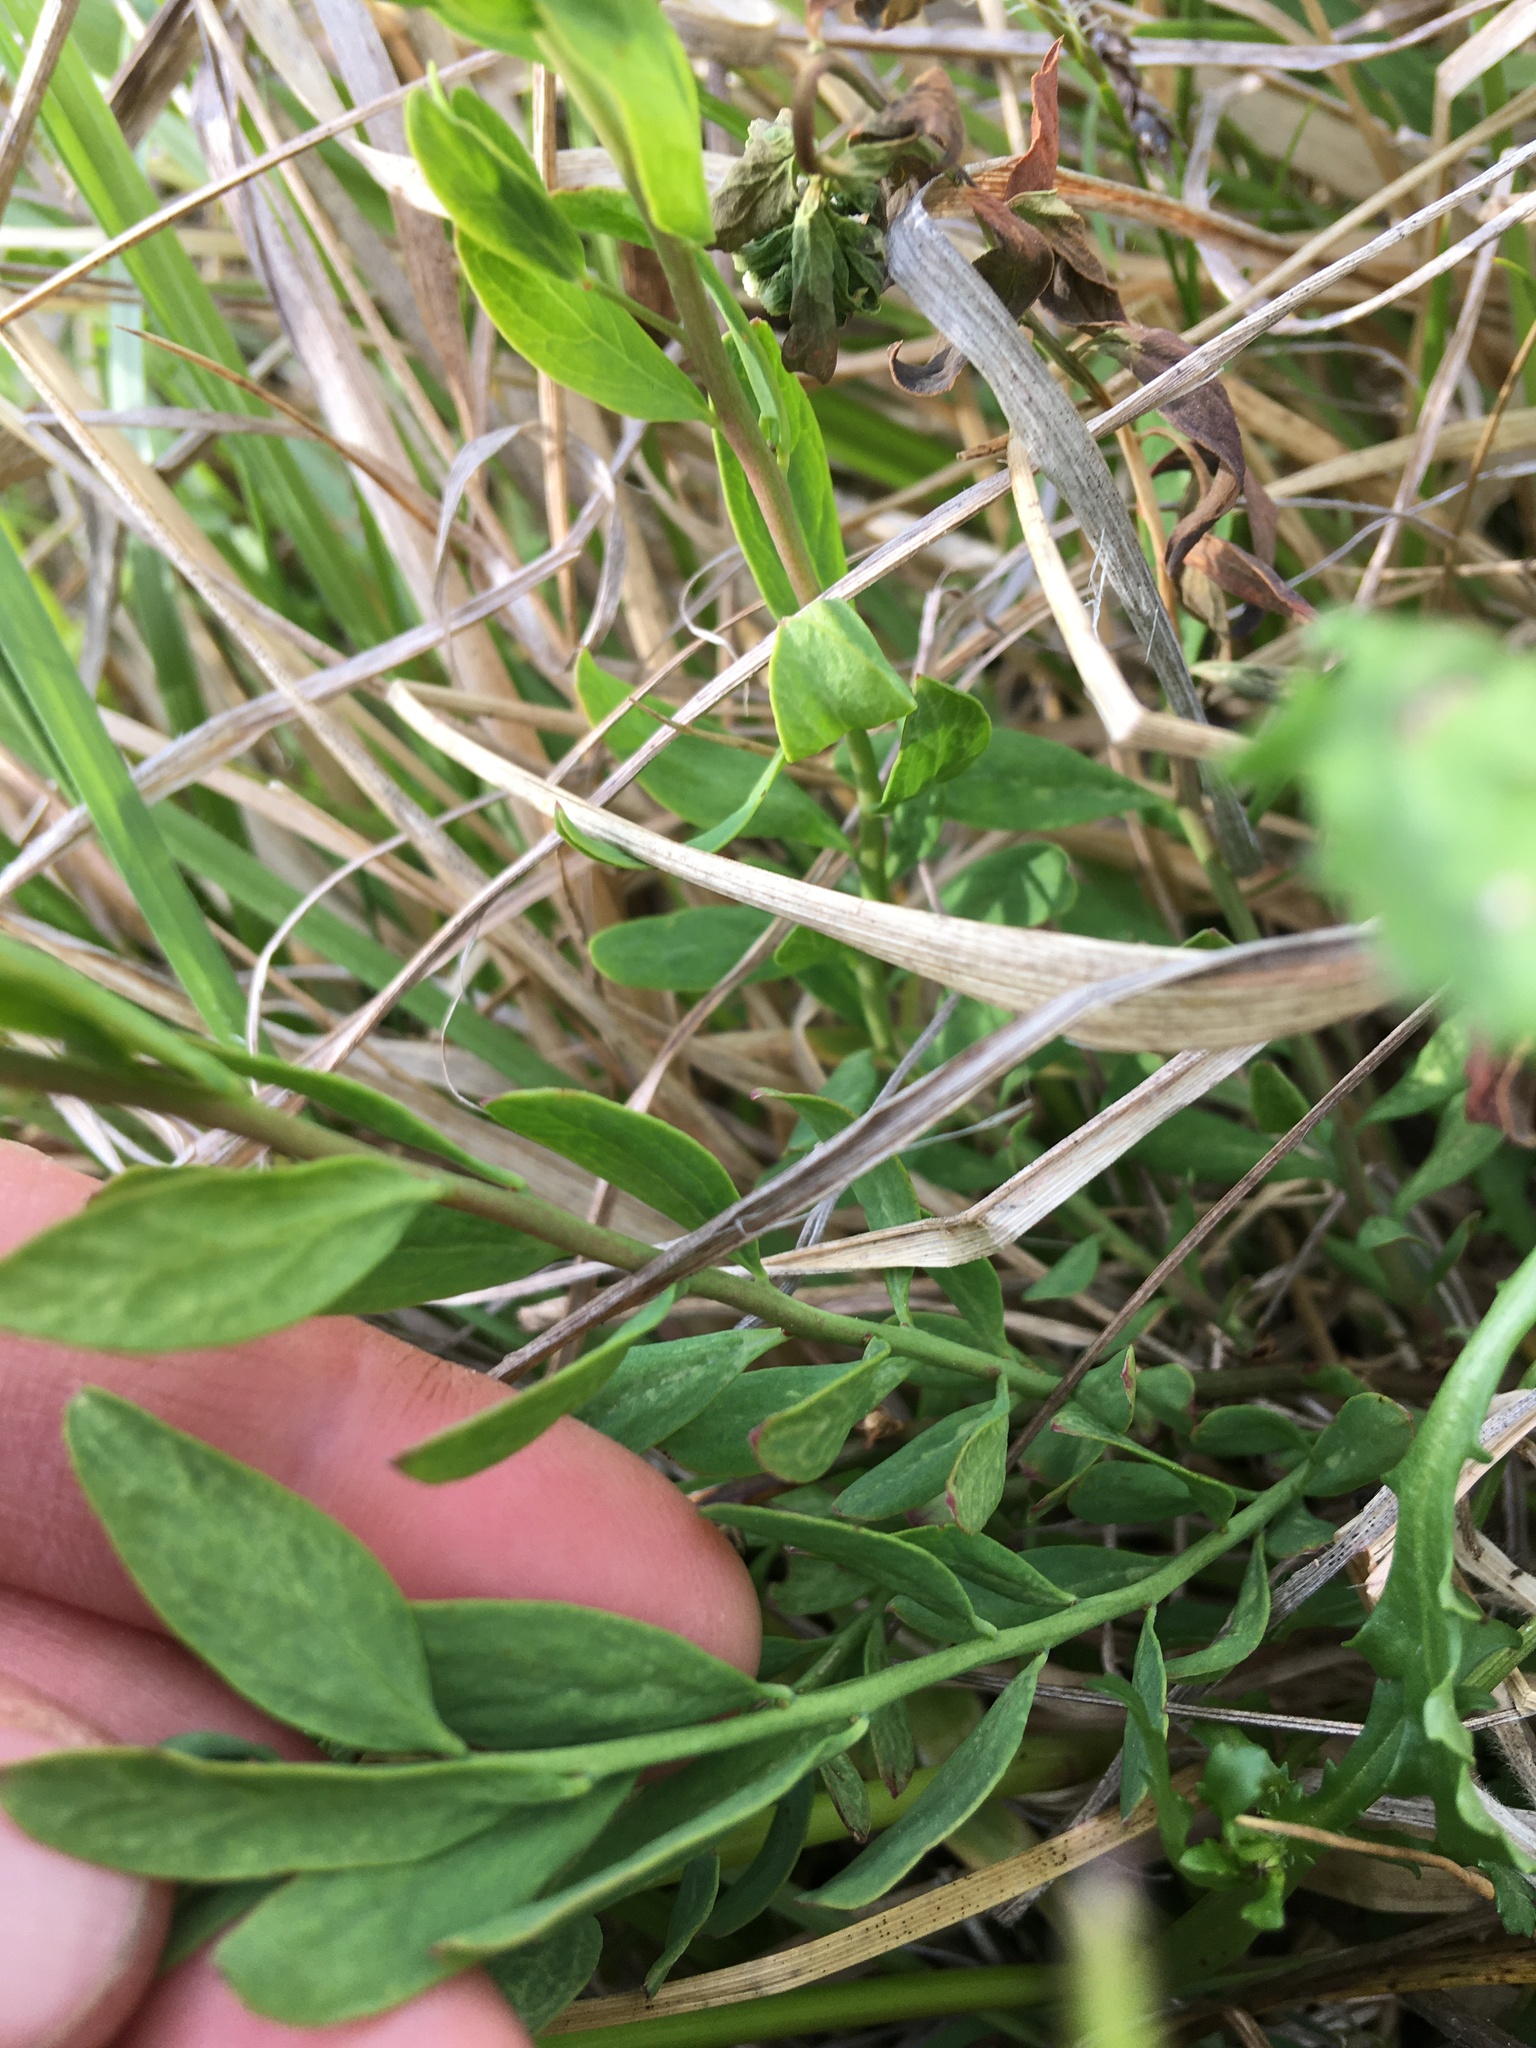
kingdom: Plantae
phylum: Tracheophyta
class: Magnoliopsida
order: Santalales
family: Comandraceae
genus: Comandra
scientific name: Comandra umbellata
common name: Bastard toadflax
